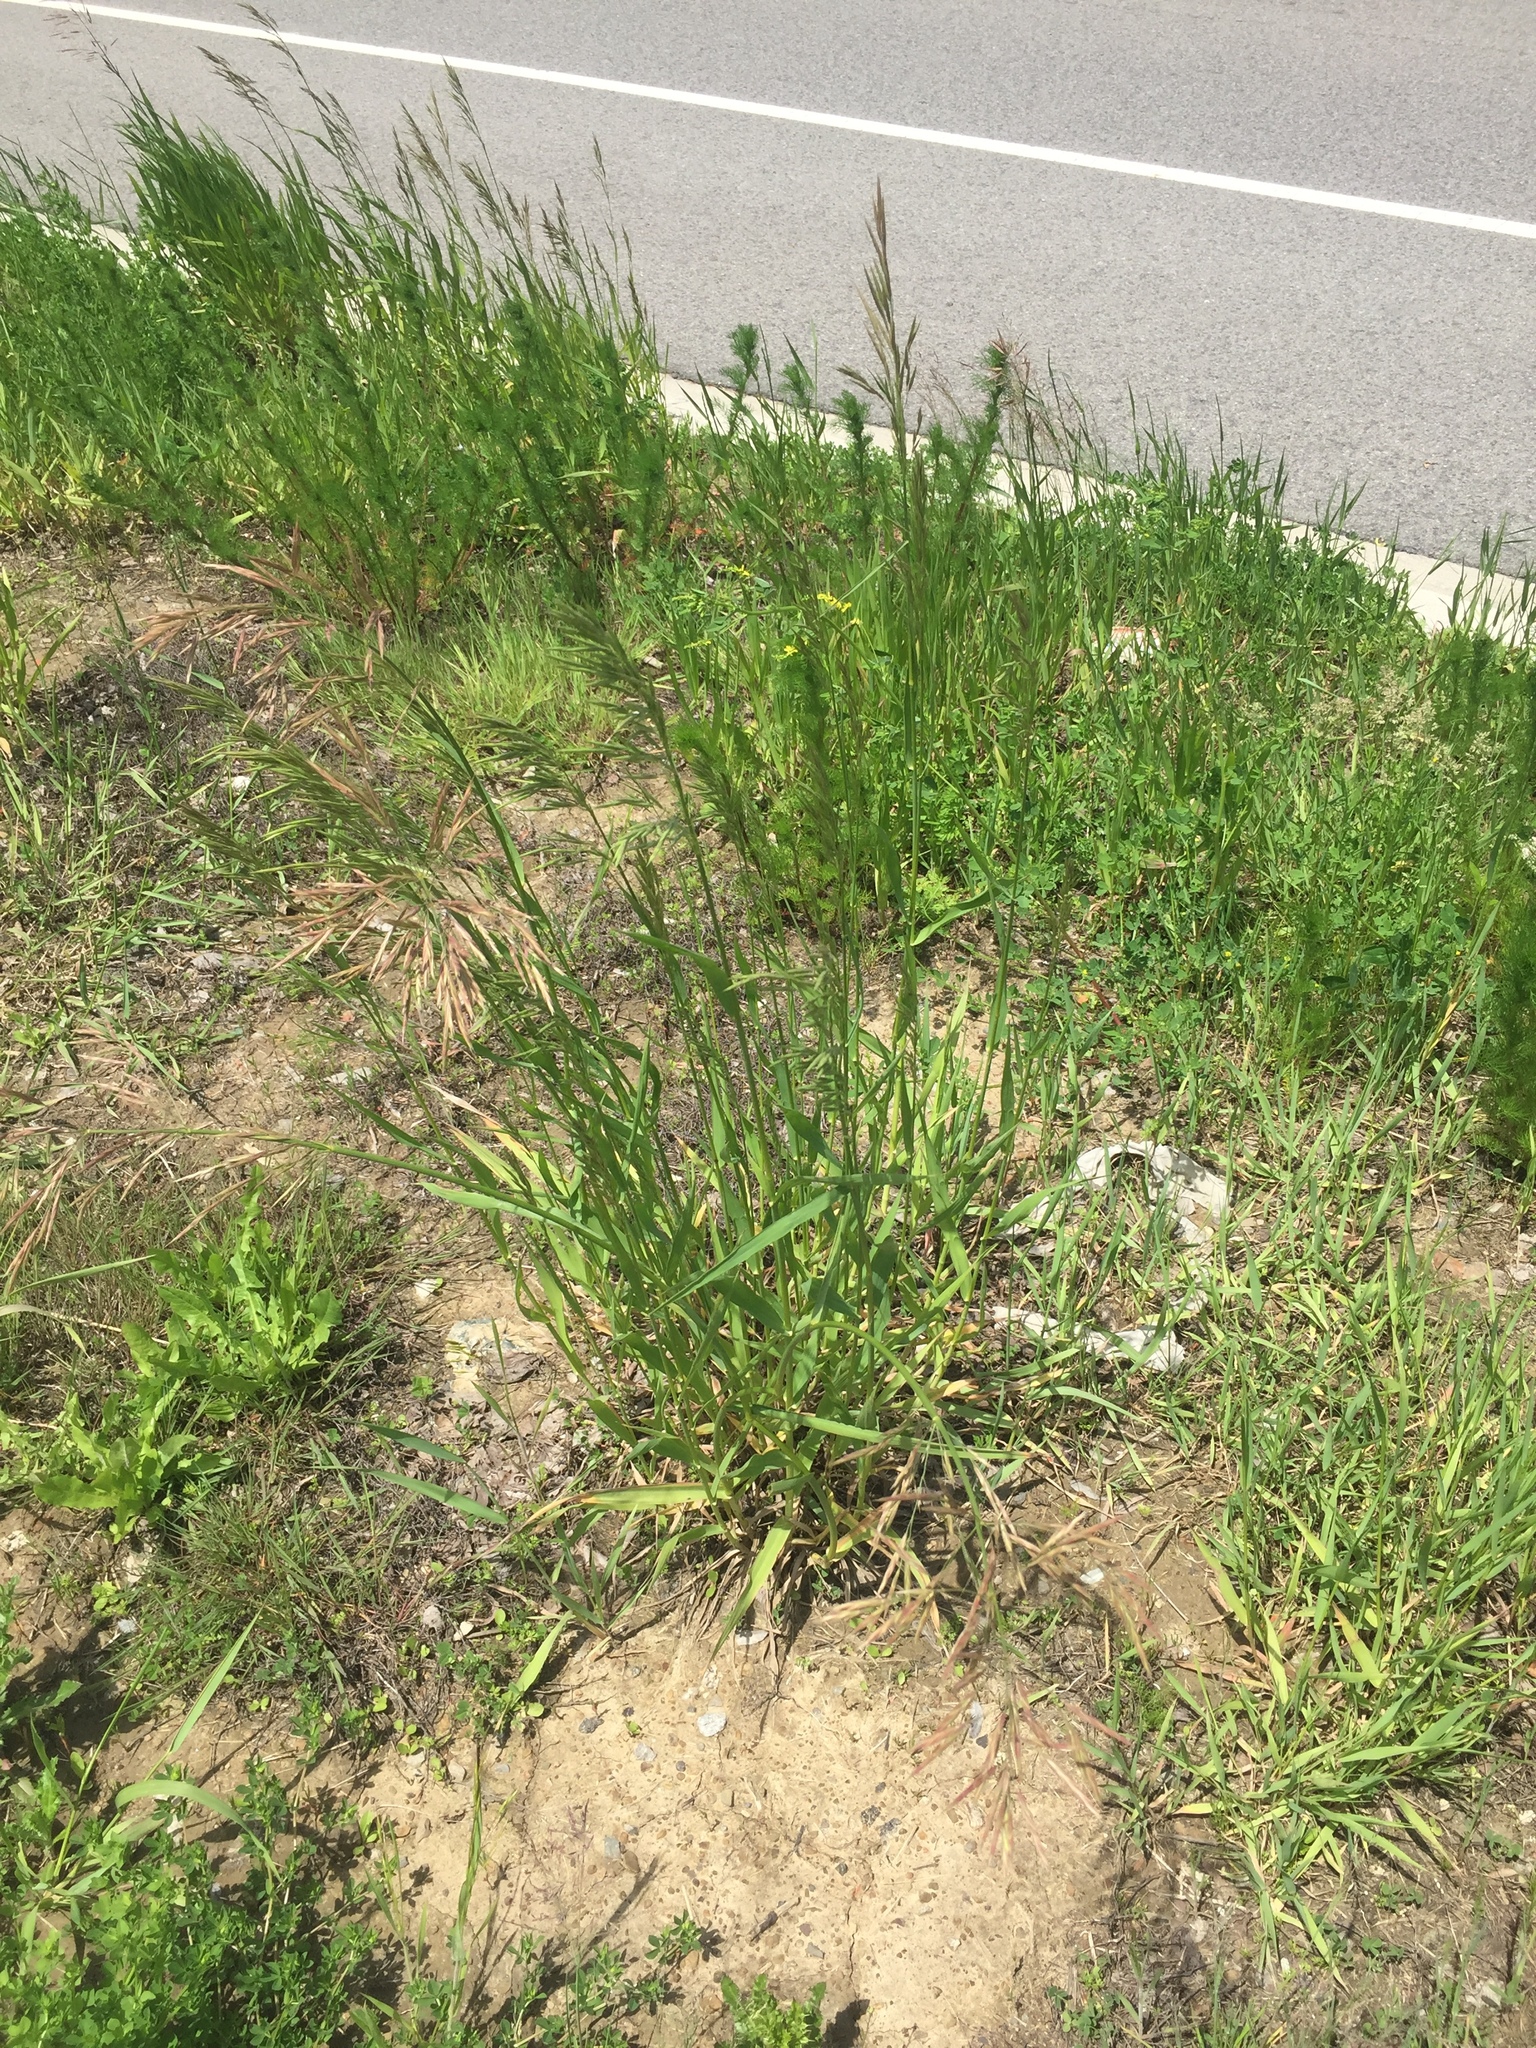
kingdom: Plantae
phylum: Tracheophyta
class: Liliopsida
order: Poales
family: Poaceae
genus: Bromus
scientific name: Bromus inermis
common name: Smooth brome
